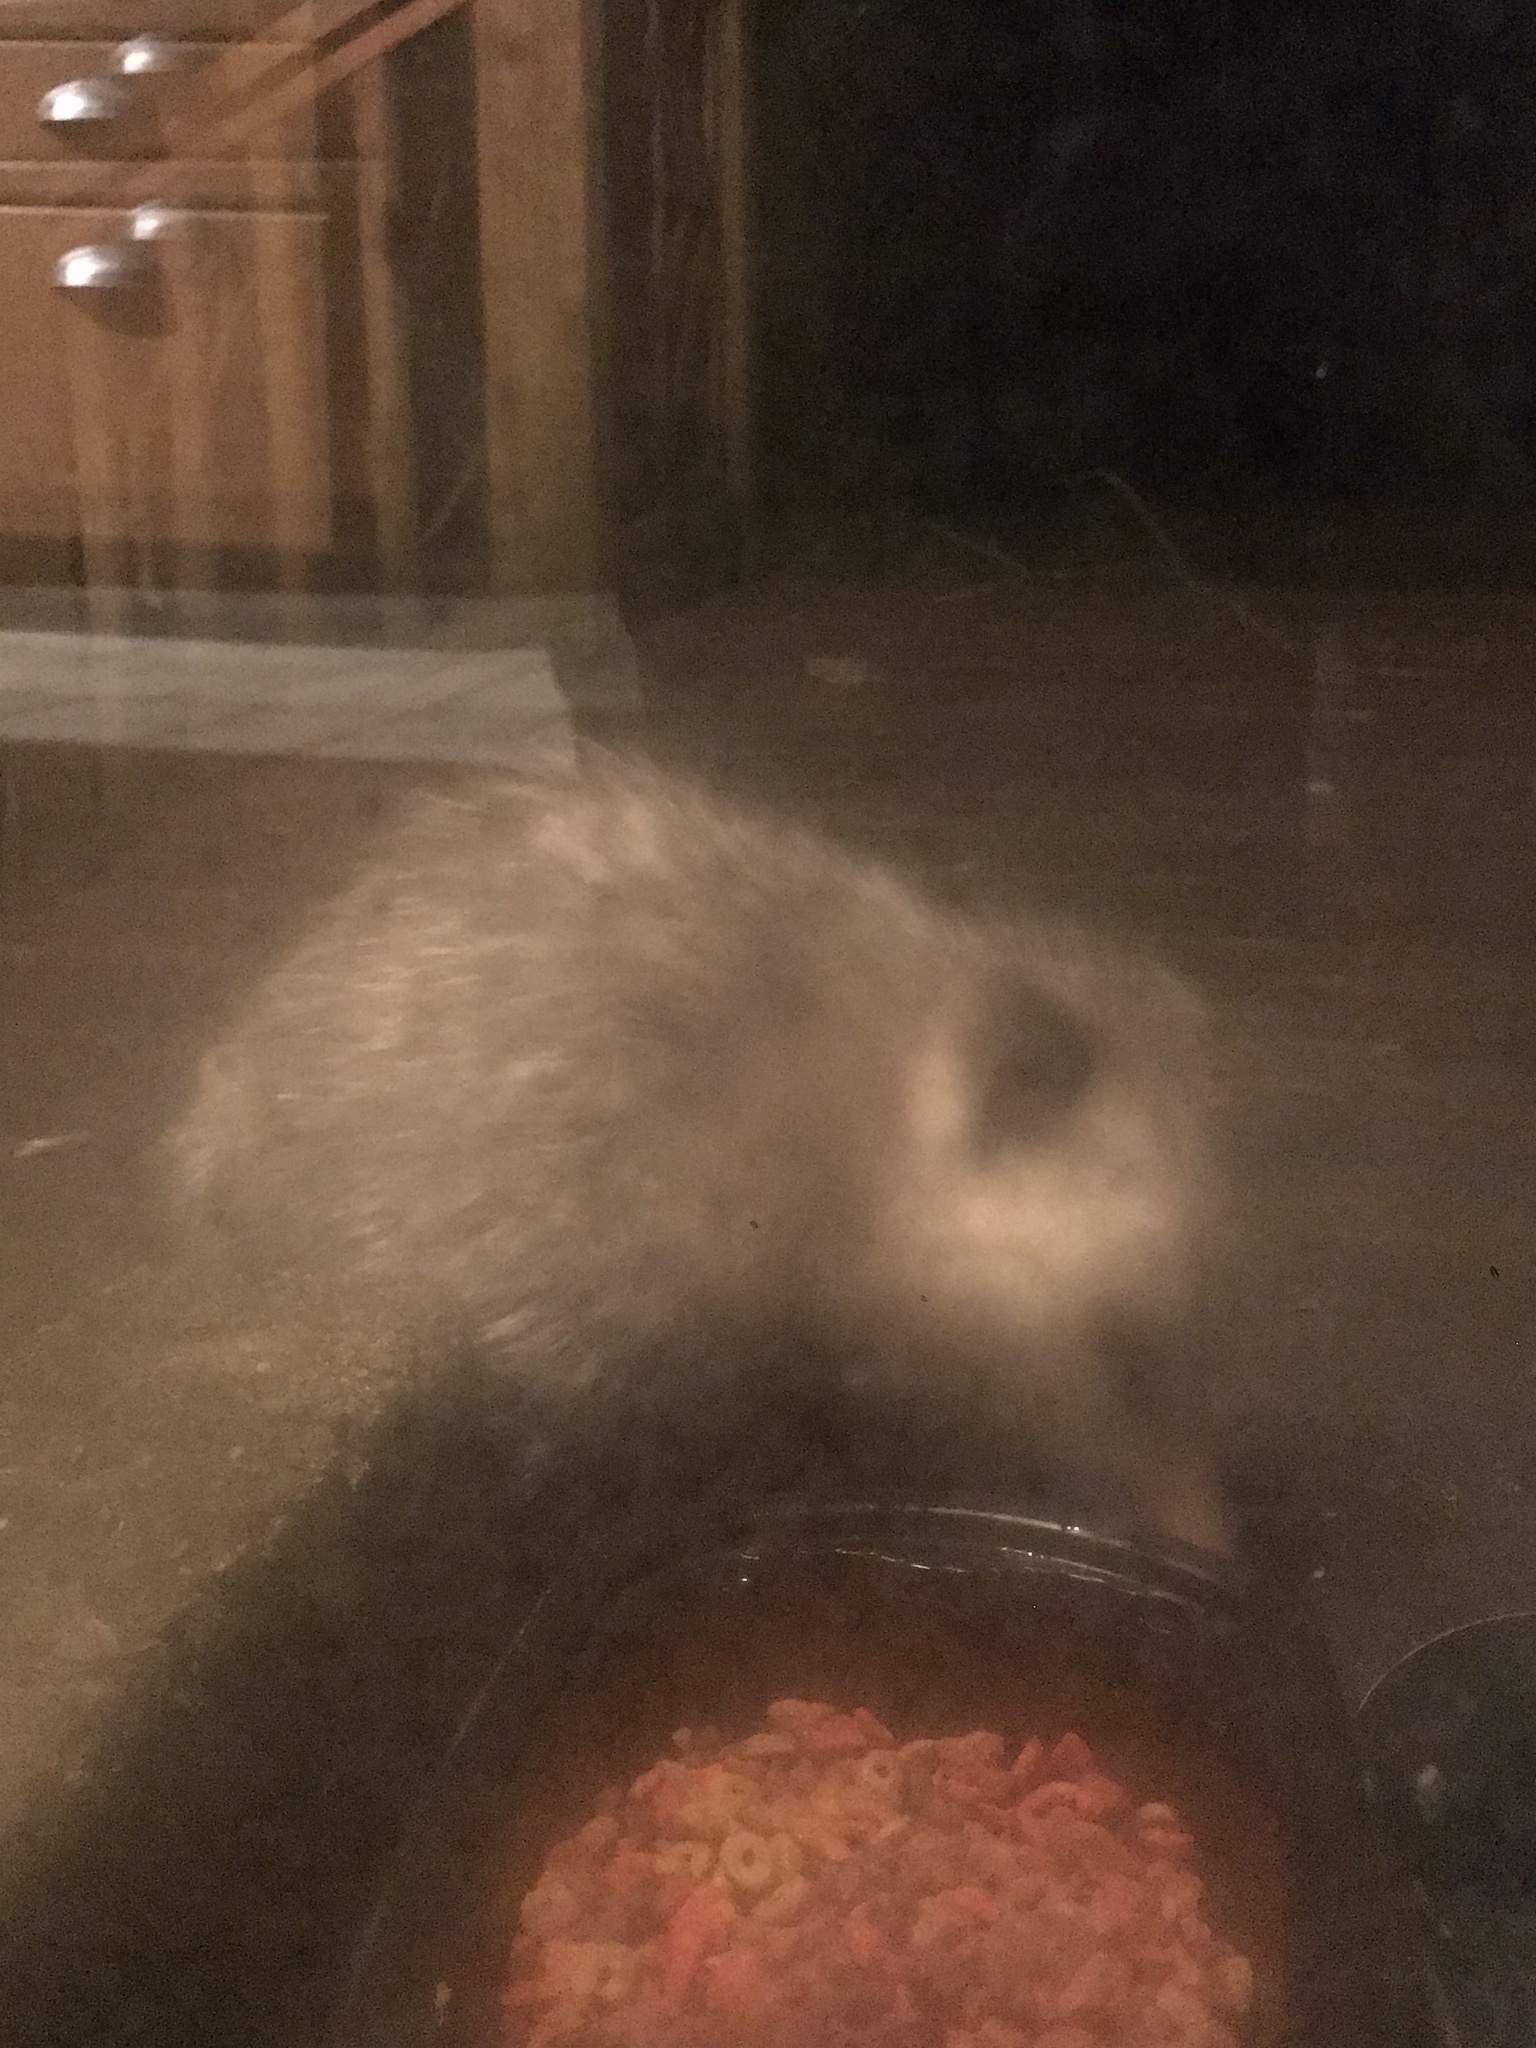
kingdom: Animalia
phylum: Chordata
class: Mammalia
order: Didelphimorphia
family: Didelphidae
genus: Didelphis
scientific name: Didelphis virginiana
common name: Virginia opossum
